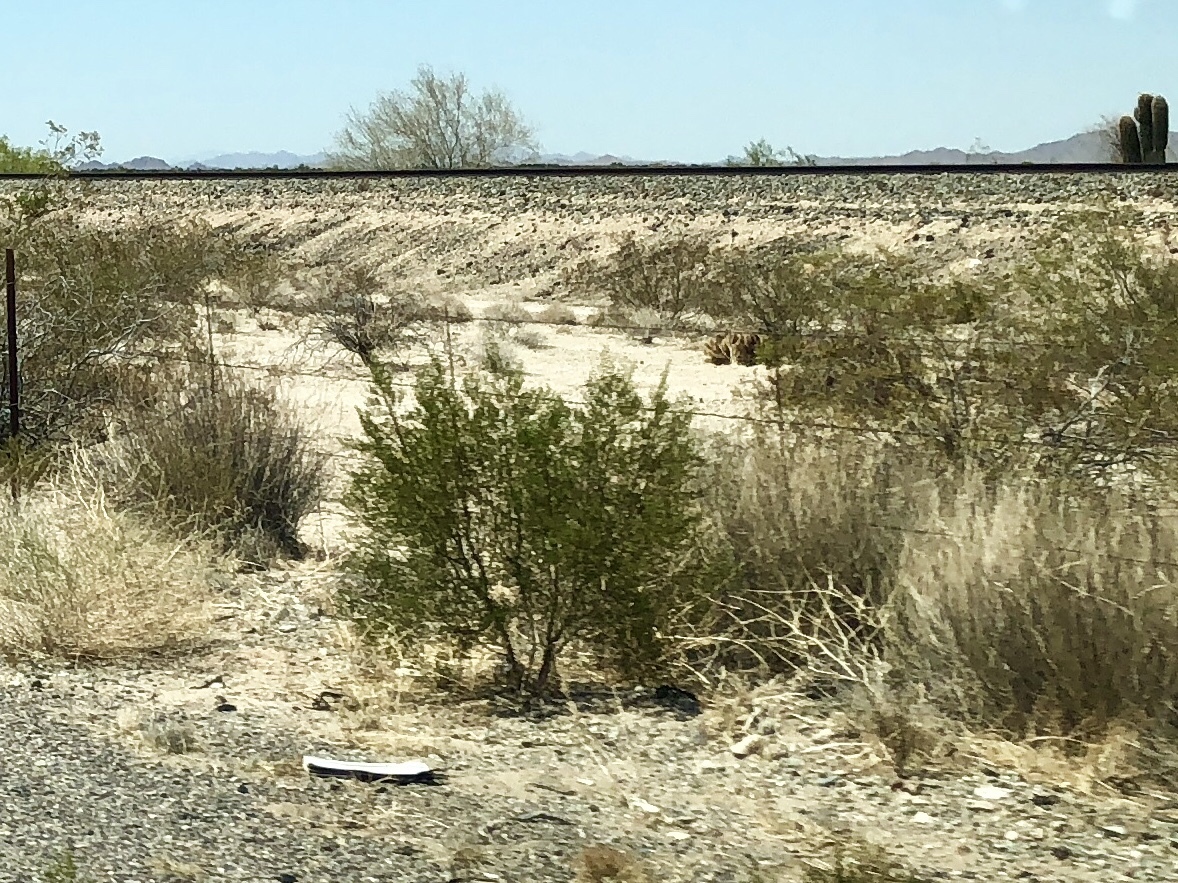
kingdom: Plantae
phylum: Tracheophyta
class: Magnoliopsida
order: Zygophyllales
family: Zygophyllaceae
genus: Larrea
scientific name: Larrea tridentata
